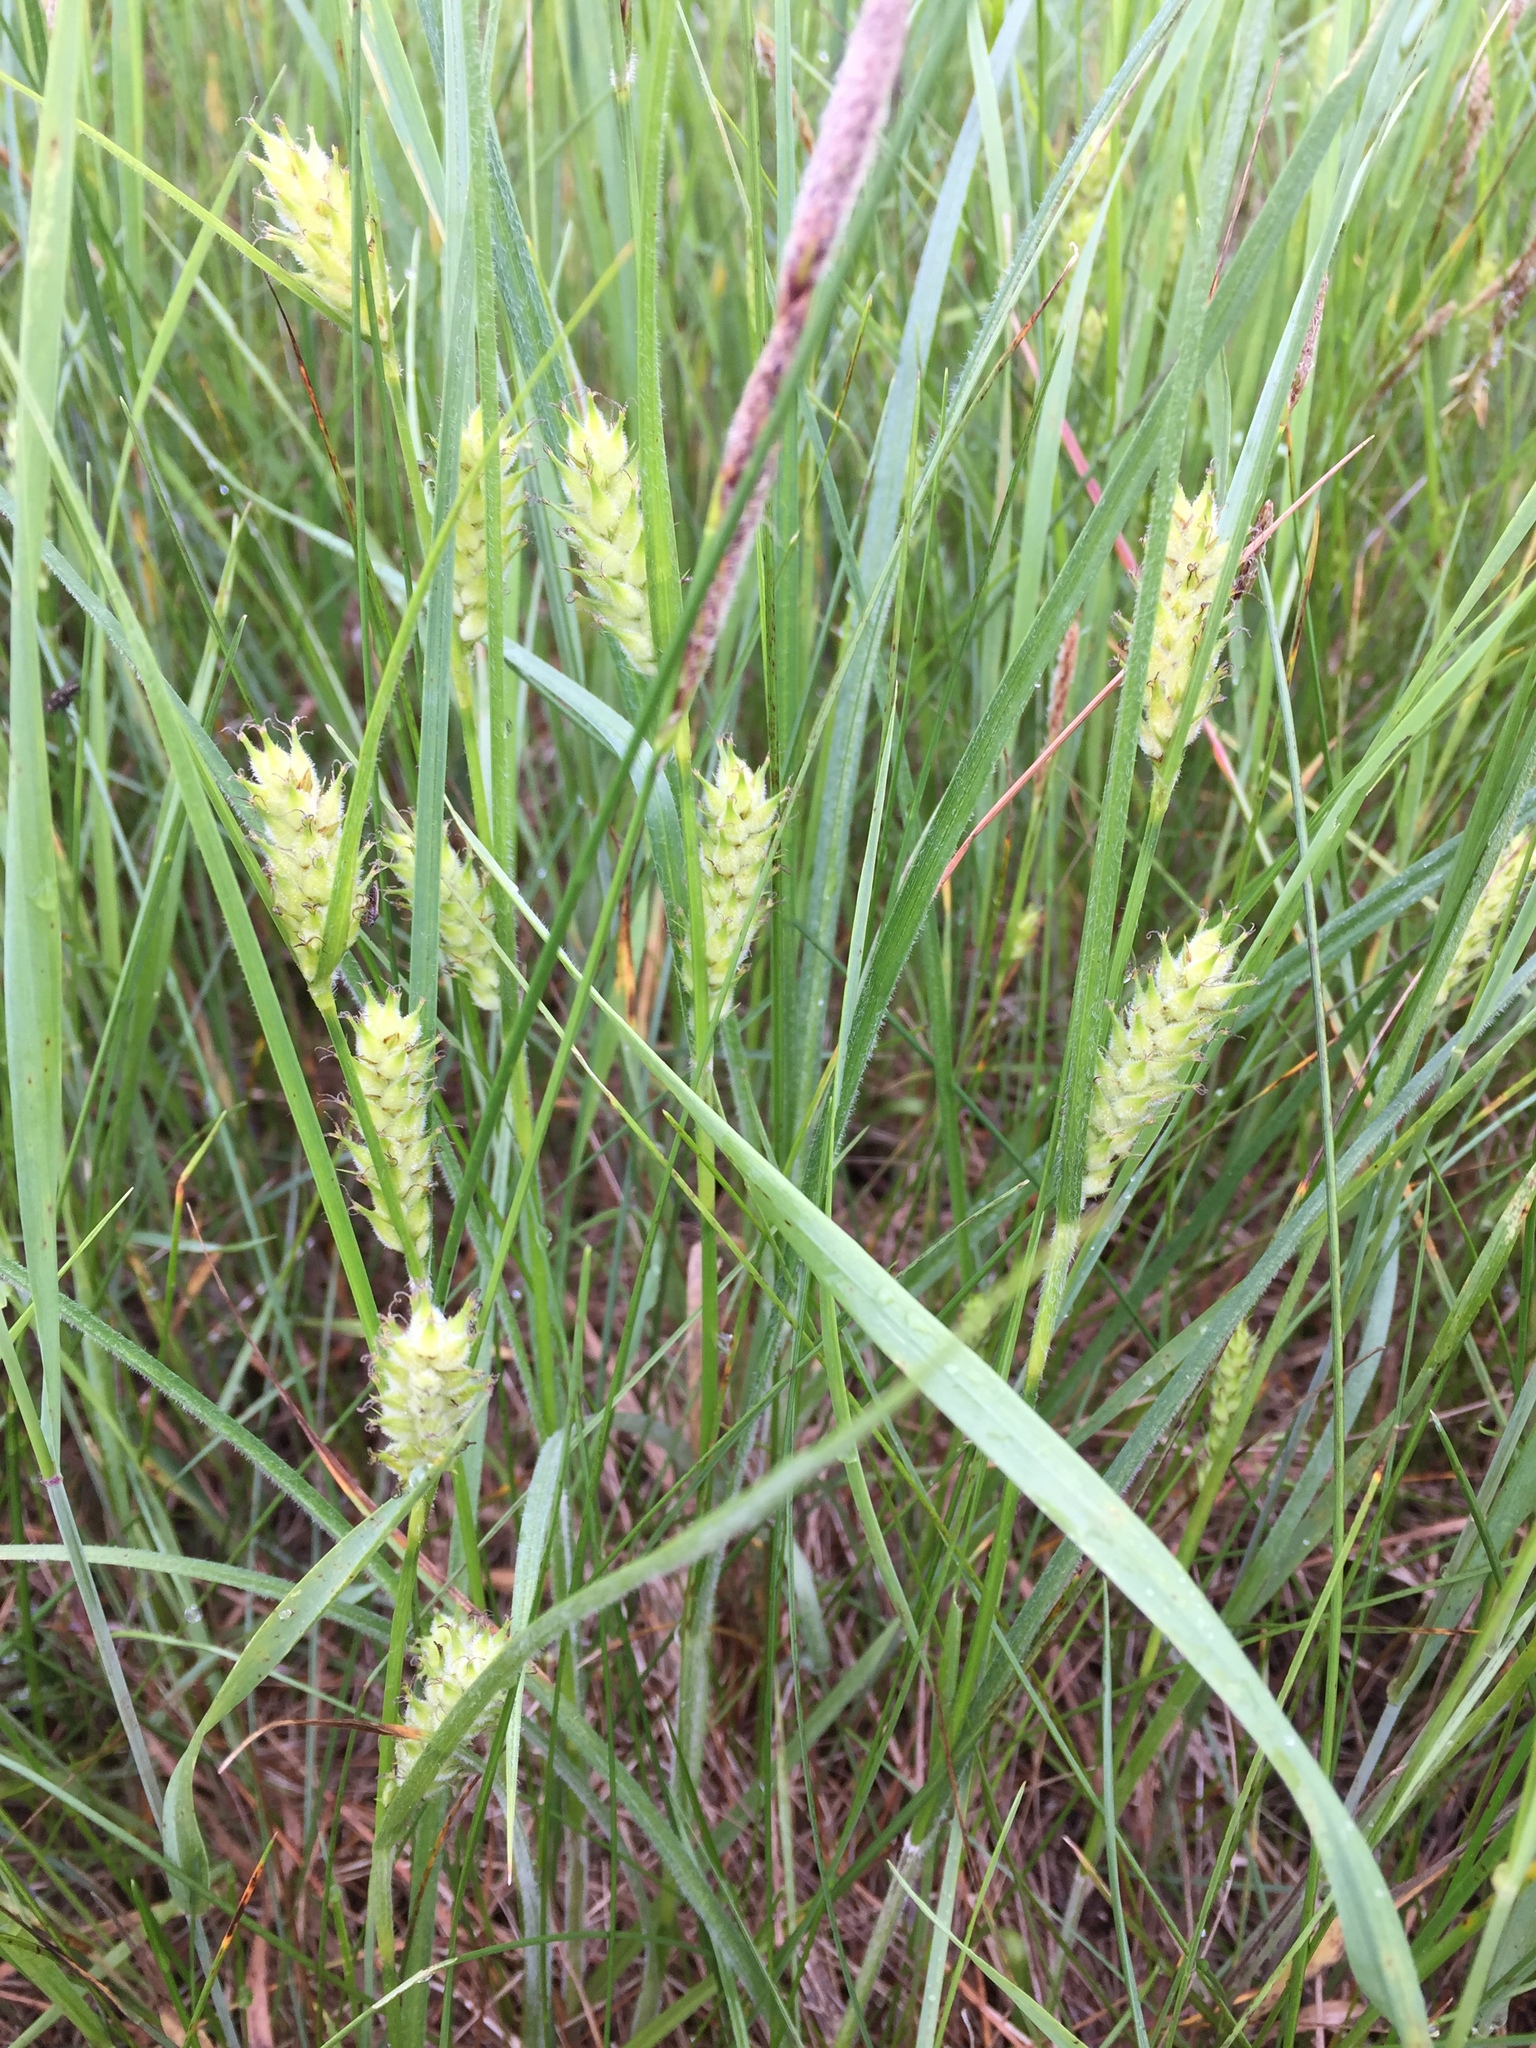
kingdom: Plantae
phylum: Tracheophyta
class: Liliopsida
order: Poales
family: Cyperaceae
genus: Carex
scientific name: Carex hirta
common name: Hairy sedge
